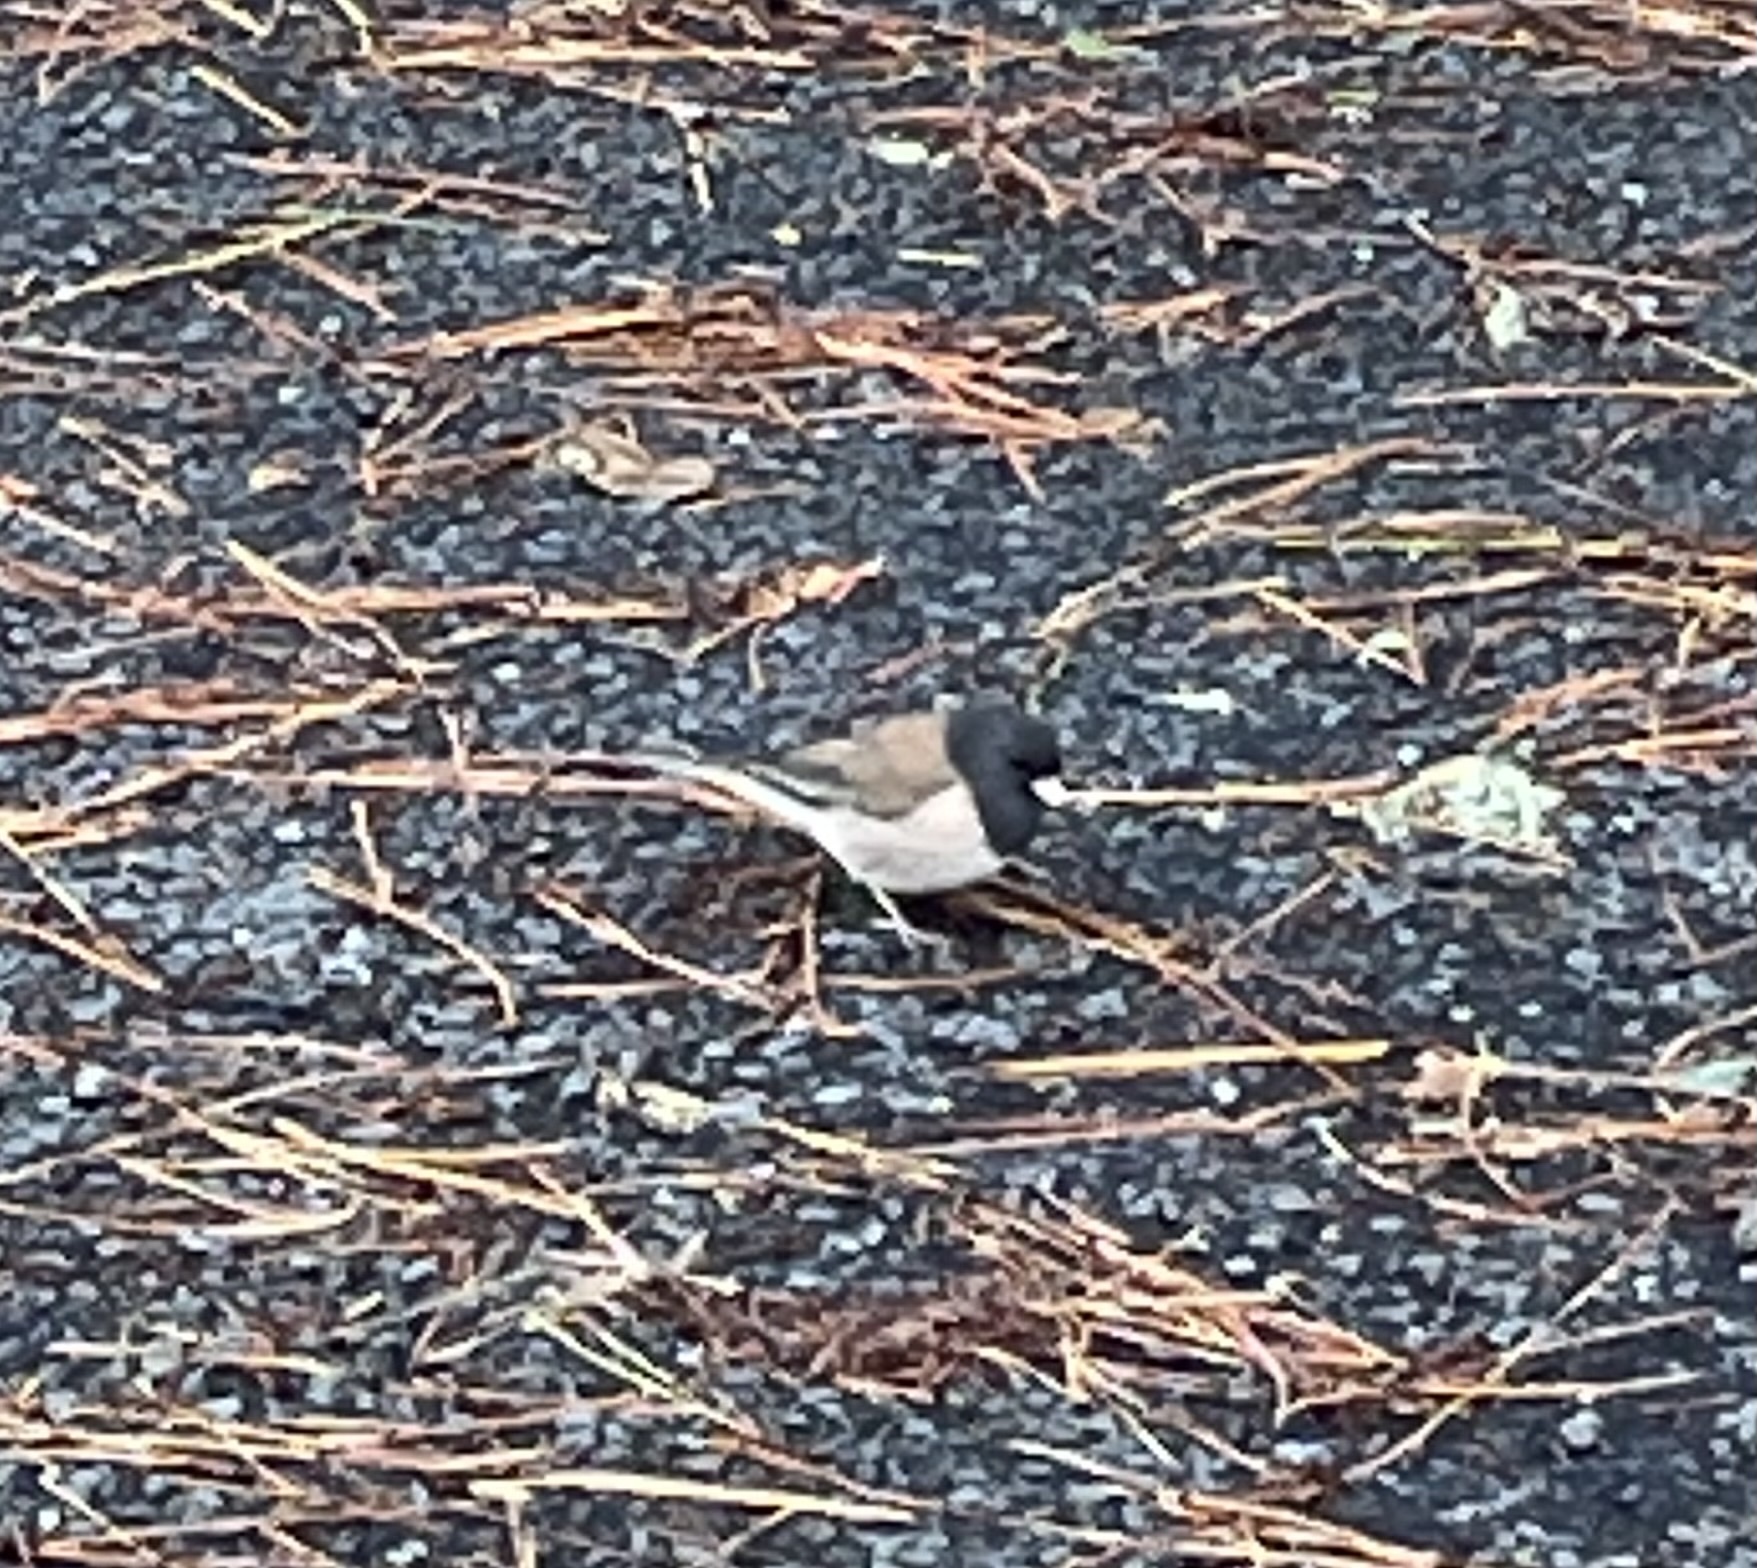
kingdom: Animalia
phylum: Chordata
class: Aves
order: Passeriformes
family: Passerellidae
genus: Junco
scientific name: Junco hyemalis
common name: Dark-eyed junco
